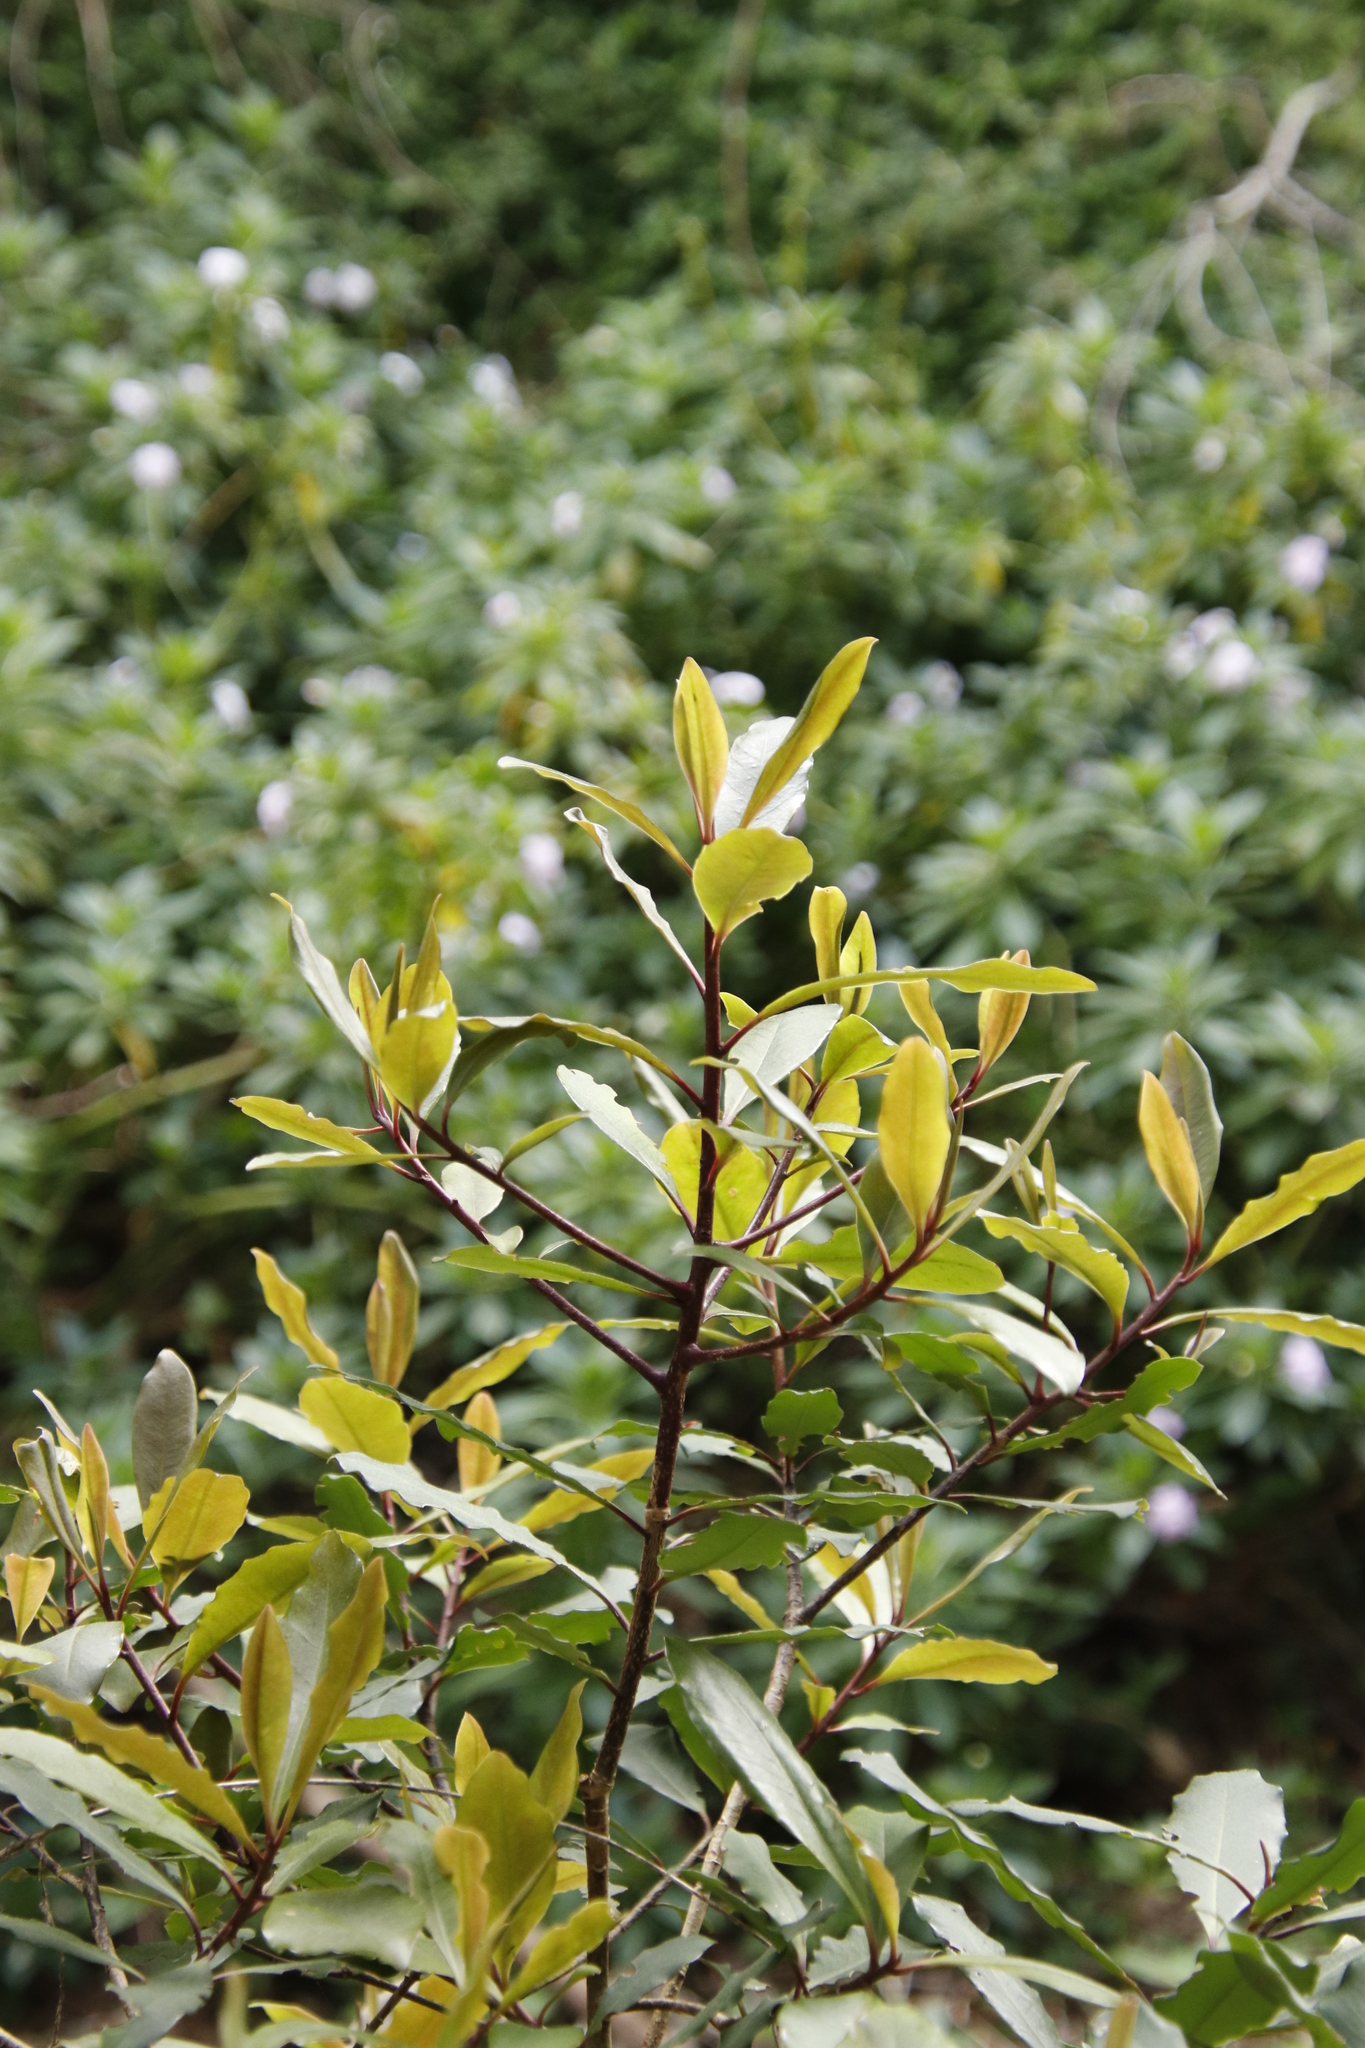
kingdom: Plantae
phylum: Tracheophyta
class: Magnoliopsida
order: Ericales
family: Primulaceae
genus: Myrsine
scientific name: Myrsine melanophloeos
